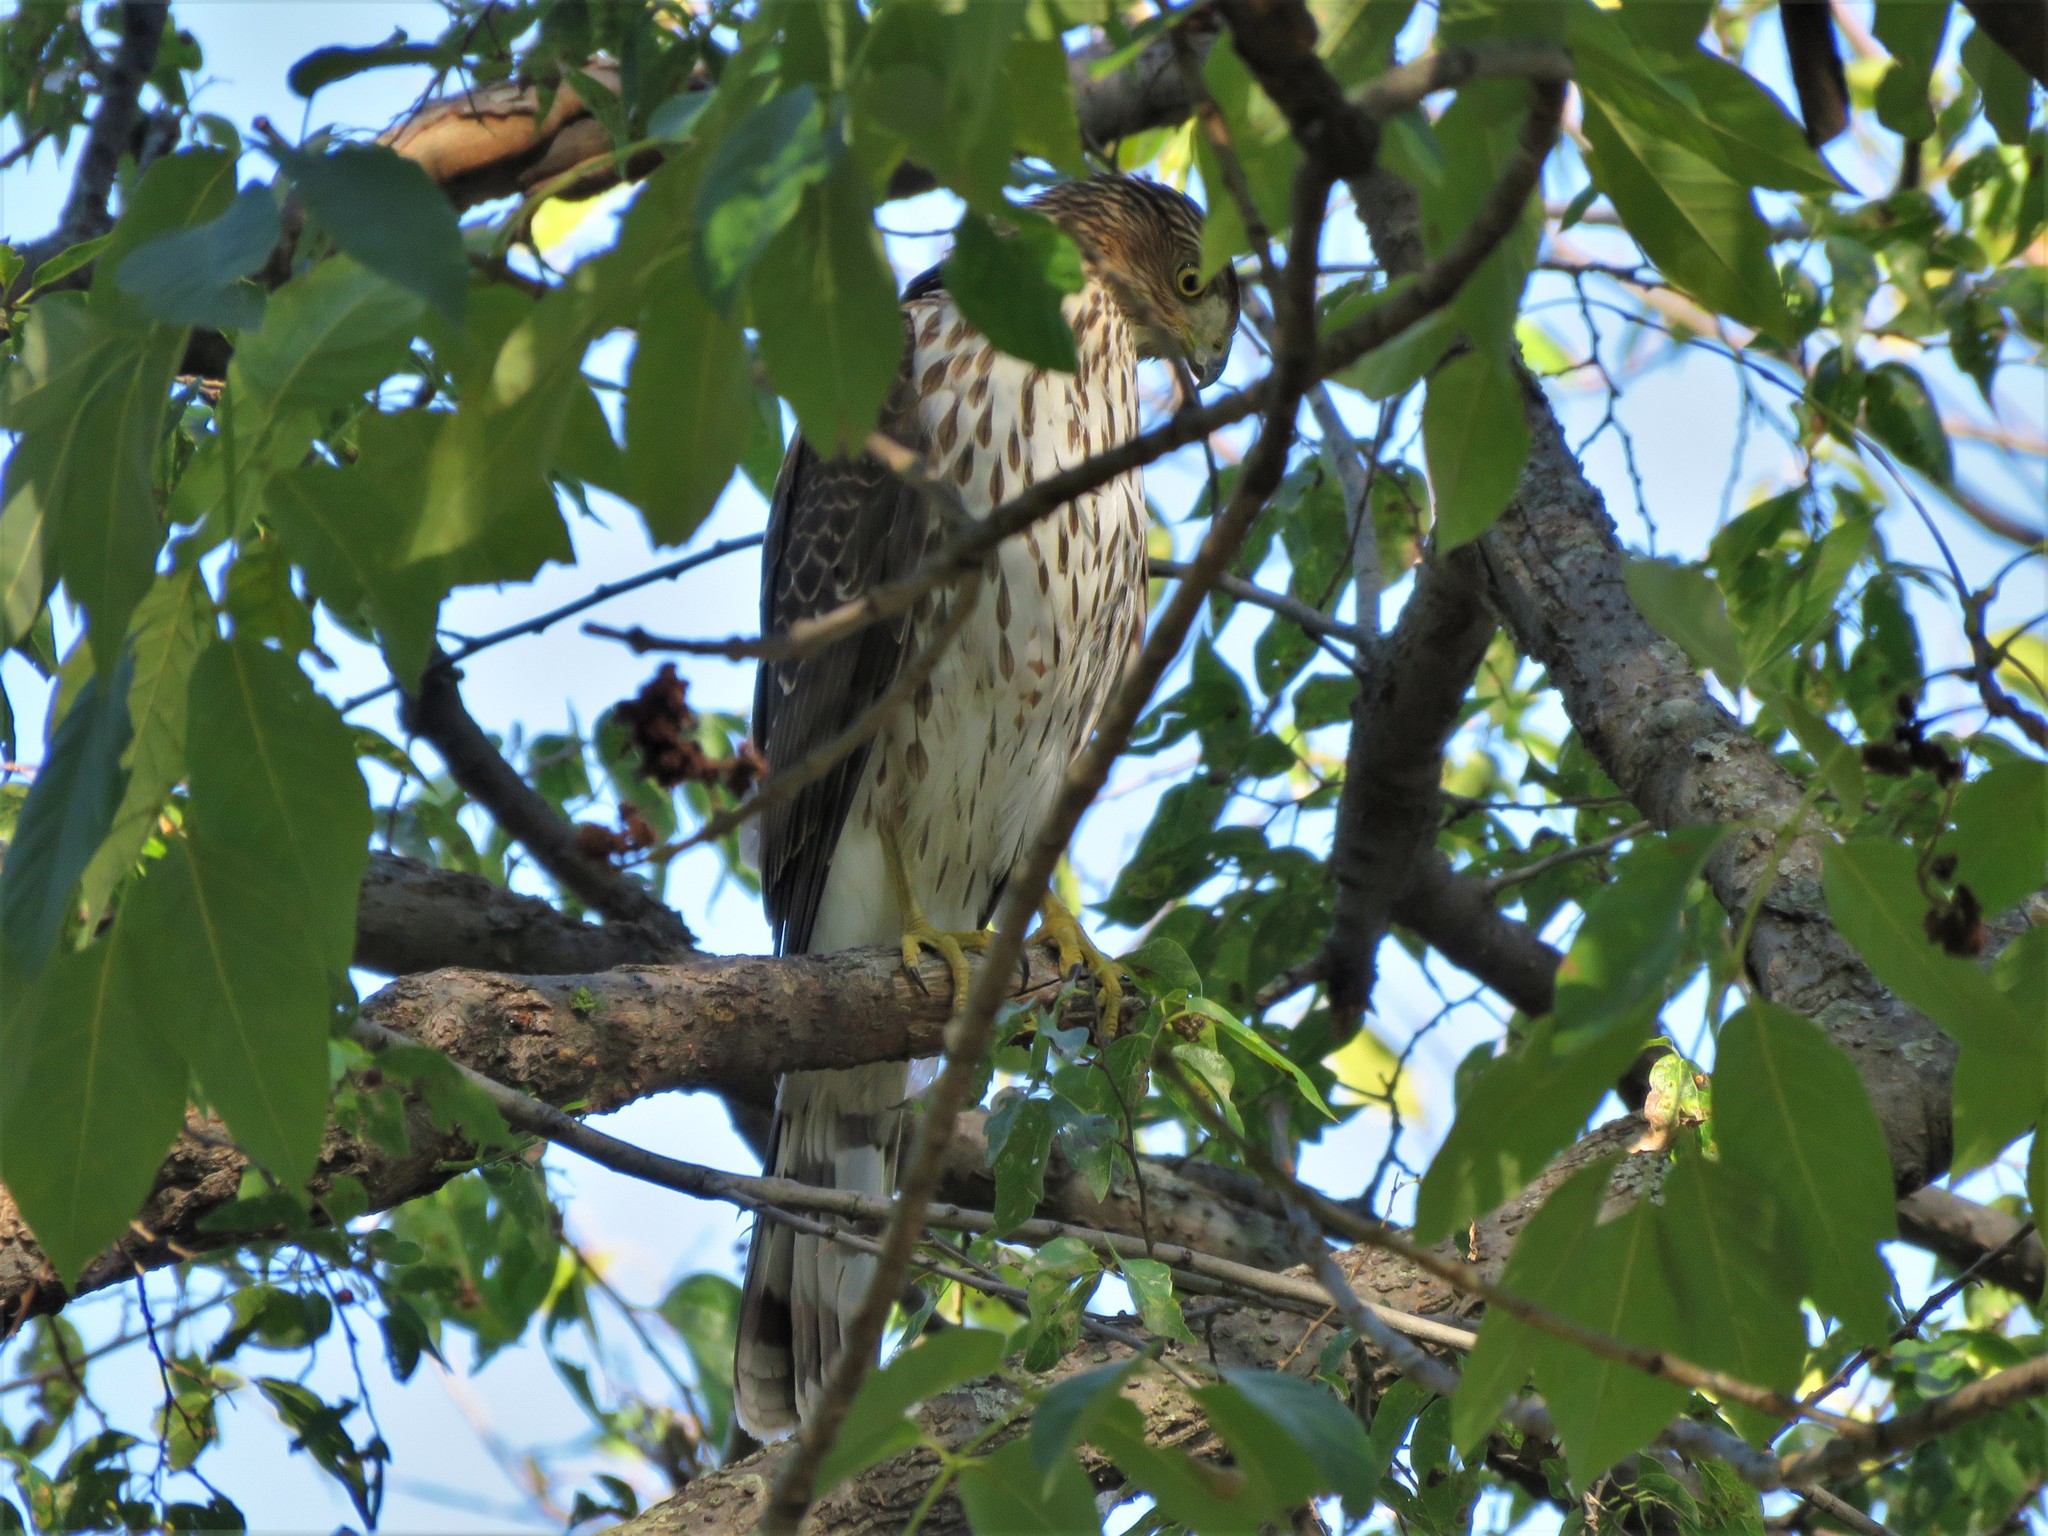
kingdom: Animalia
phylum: Chordata
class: Aves
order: Accipitriformes
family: Accipitridae
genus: Accipiter
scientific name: Accipiter cooperii
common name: Cooper's hawk
